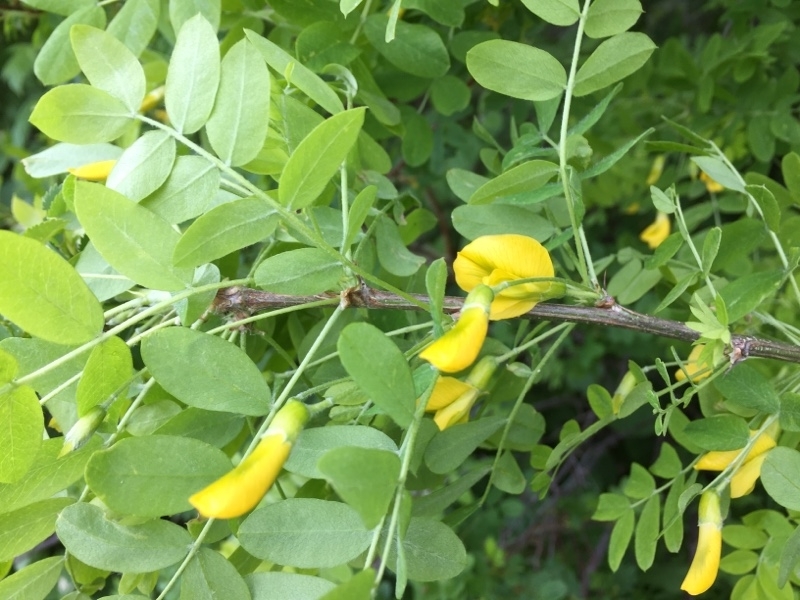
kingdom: Plantae
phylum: Tracheophyta
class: Magnoliopsida
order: Fabales
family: Fabaceae
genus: Caragana
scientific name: Caragana arborescens
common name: Siberian peashrub
